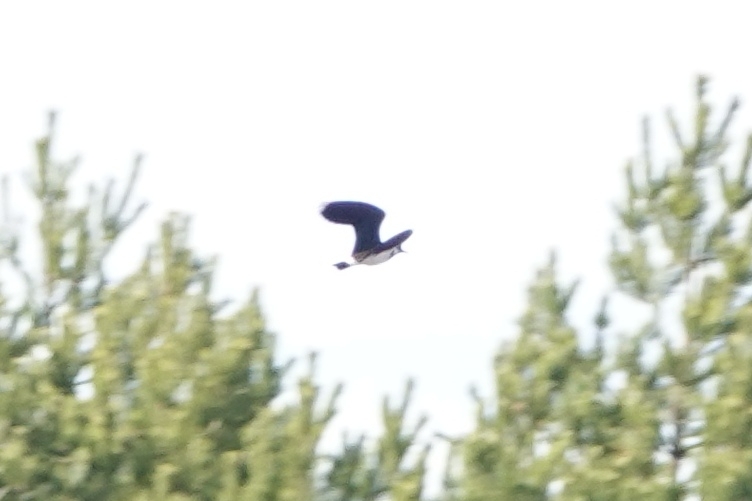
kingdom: Animalia
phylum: Chordata
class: Aves
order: Charadriiformes
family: Charadriidae
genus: Vanellus
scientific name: Vanellus vanellus
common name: Northern lapwing
